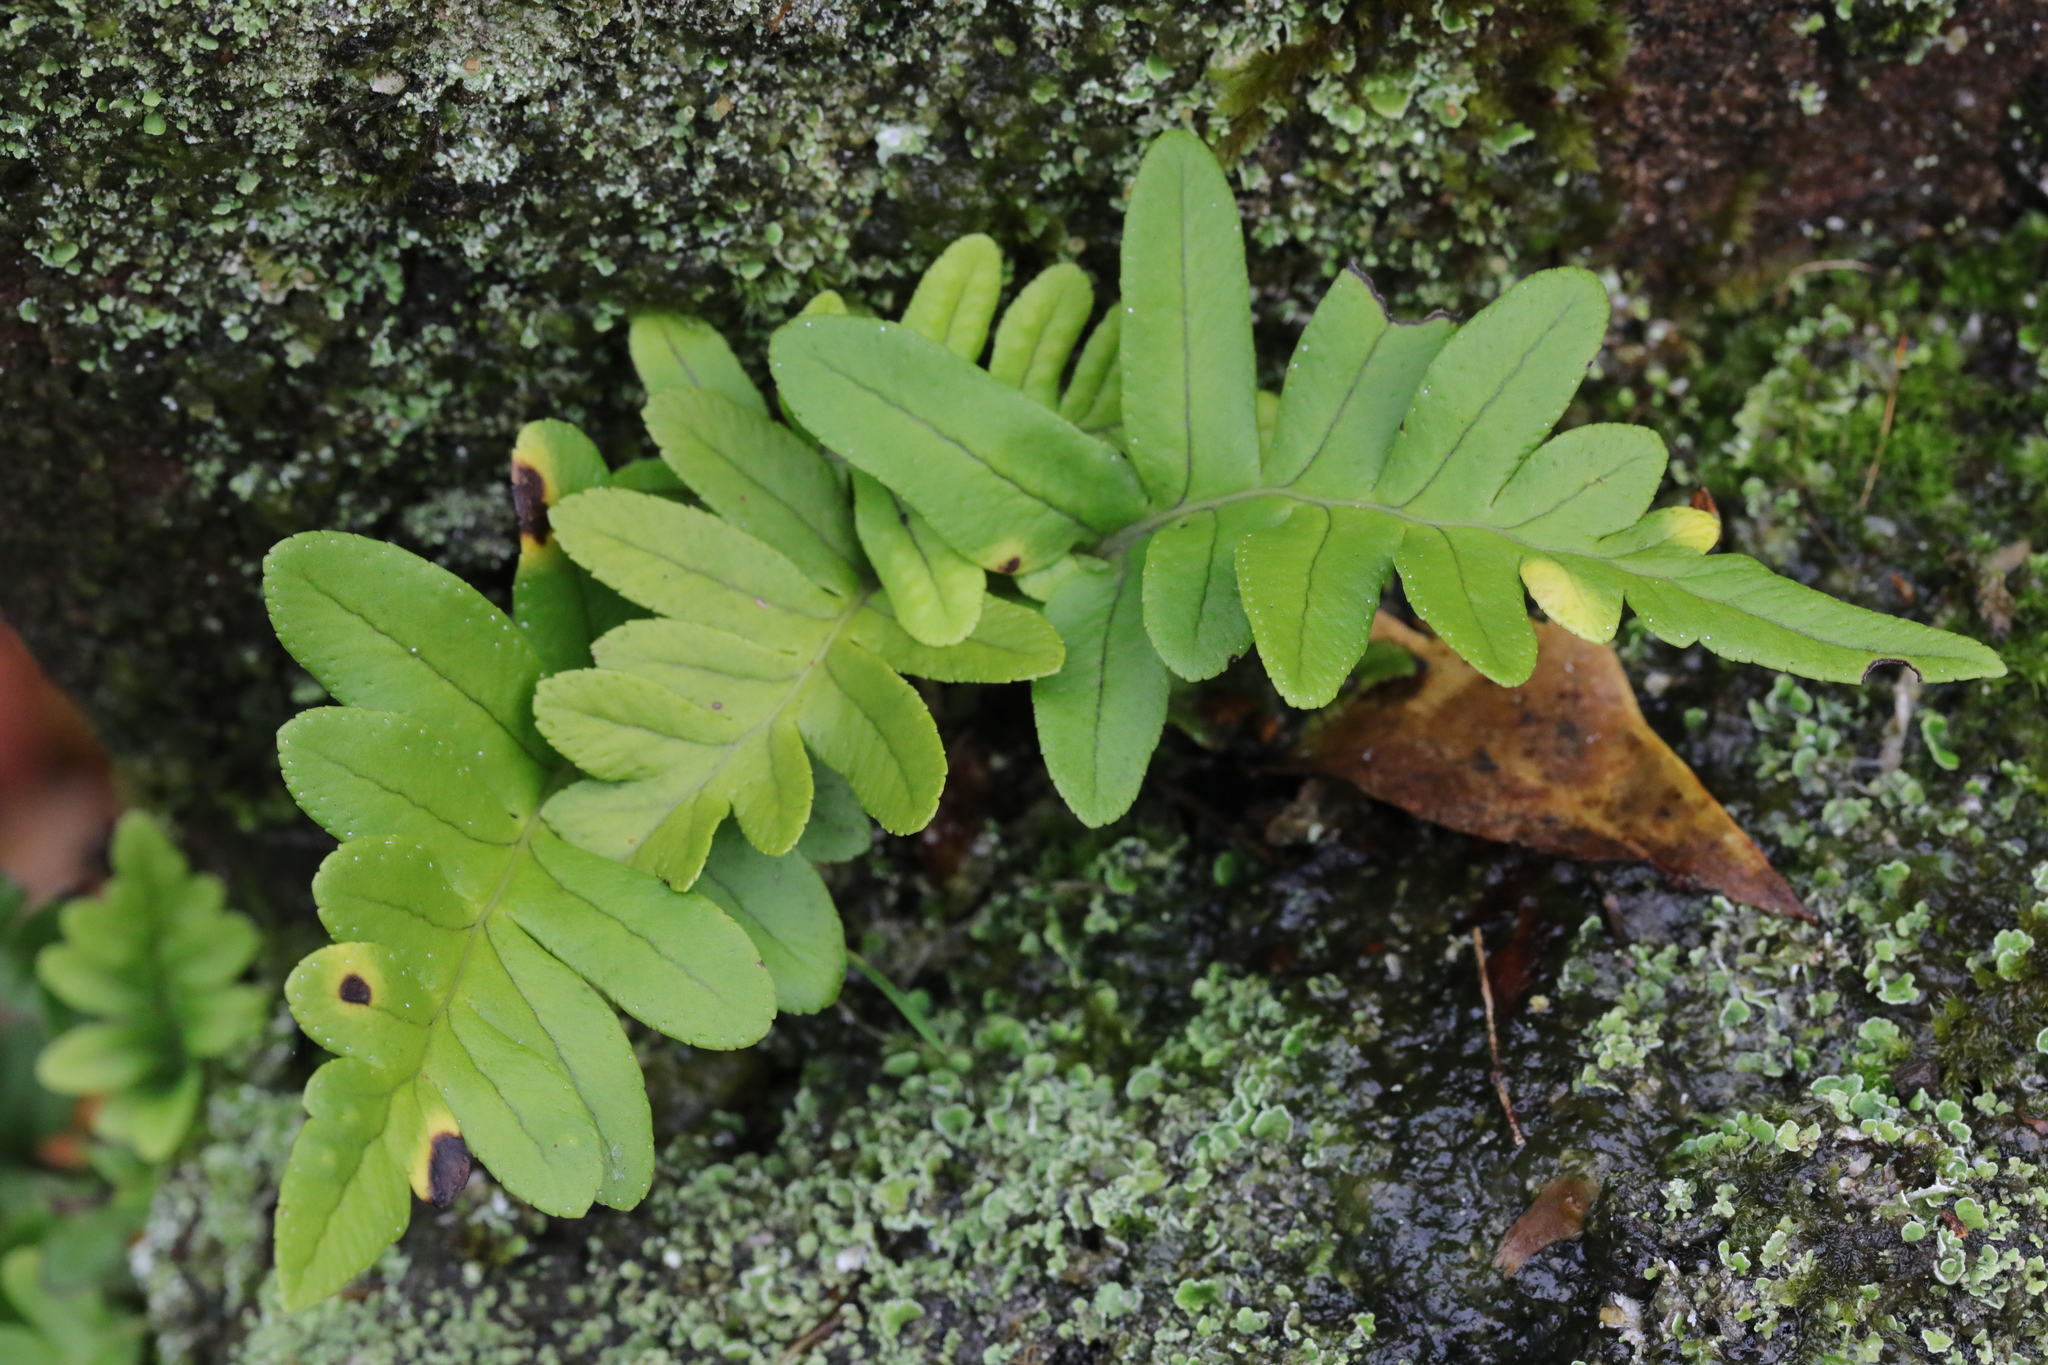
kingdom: Plantae
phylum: Tracheophyta
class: Polypodiopsida
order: Polypodiales
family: Polypodiaceae
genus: Polypodium
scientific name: Polypodium vulgare
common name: Common polypody
